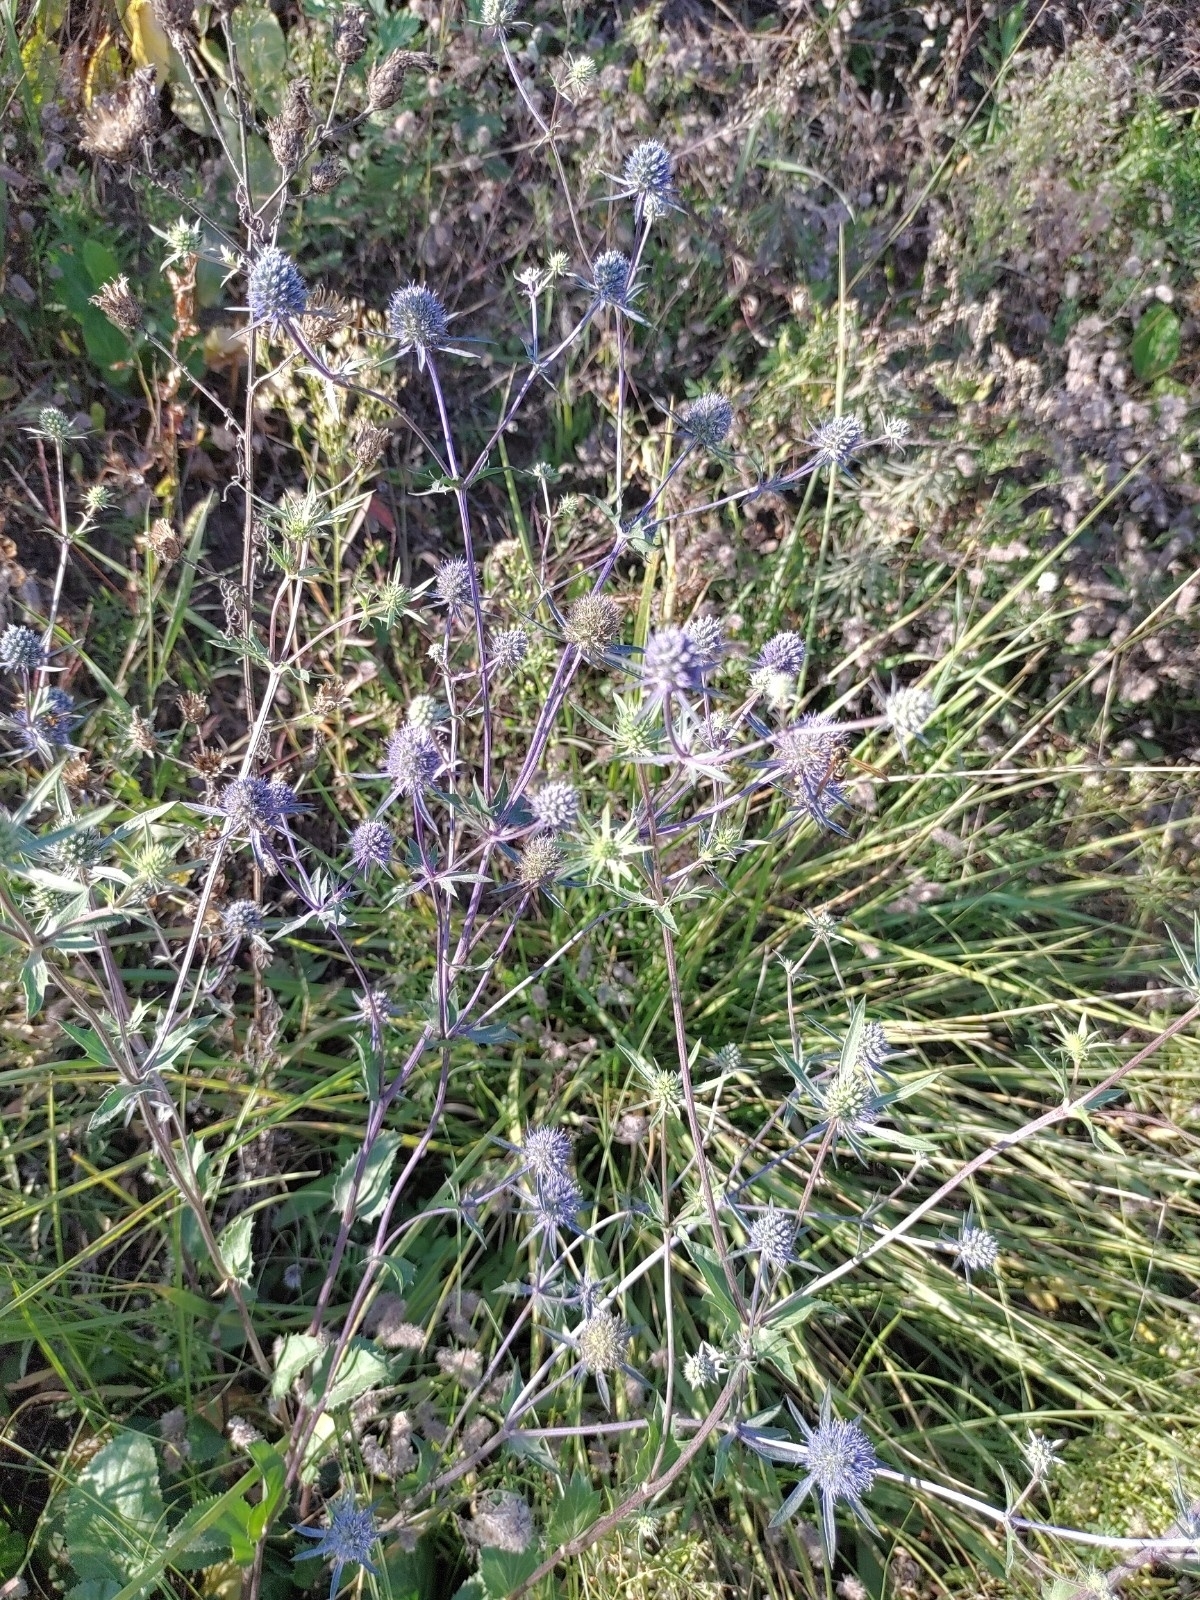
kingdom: Plantae
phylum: Tracheophyta
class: Magnoliopsida
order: Apiales
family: Apiaceae
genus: Eryngium
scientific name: Eryngium planum
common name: Blue eryngo
